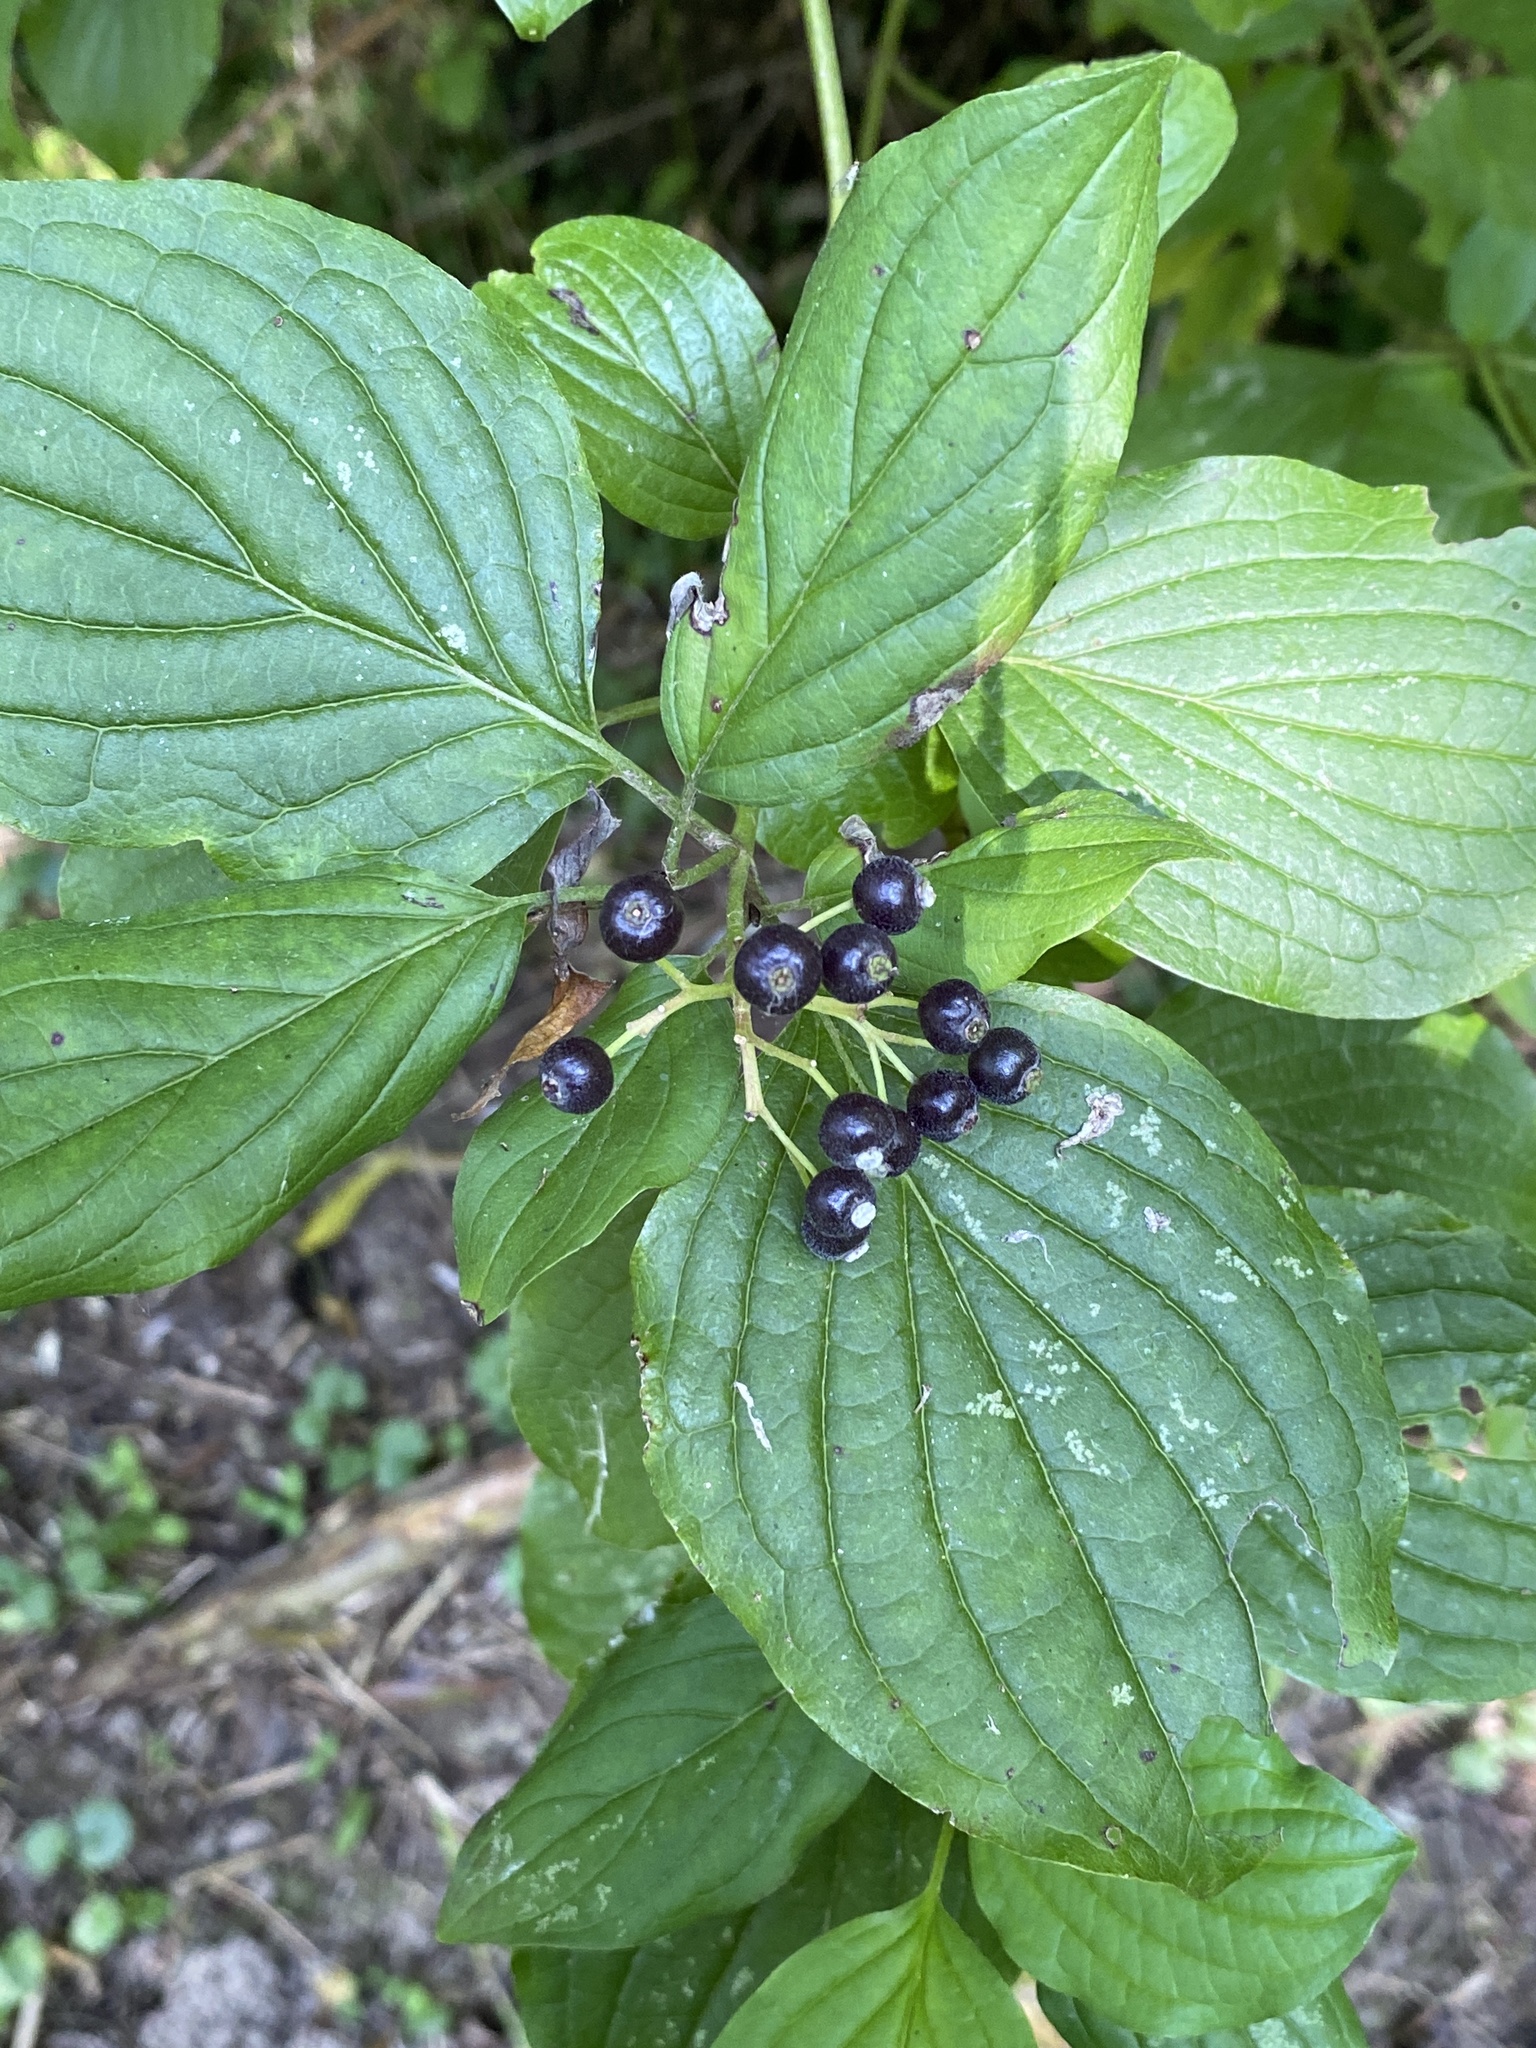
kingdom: Plantae
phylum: Tracheophyta
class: Magnoliopsida
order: Cornales
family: Cornaceae
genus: Cornus
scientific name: Cornus sanguinea
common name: Dogwood
